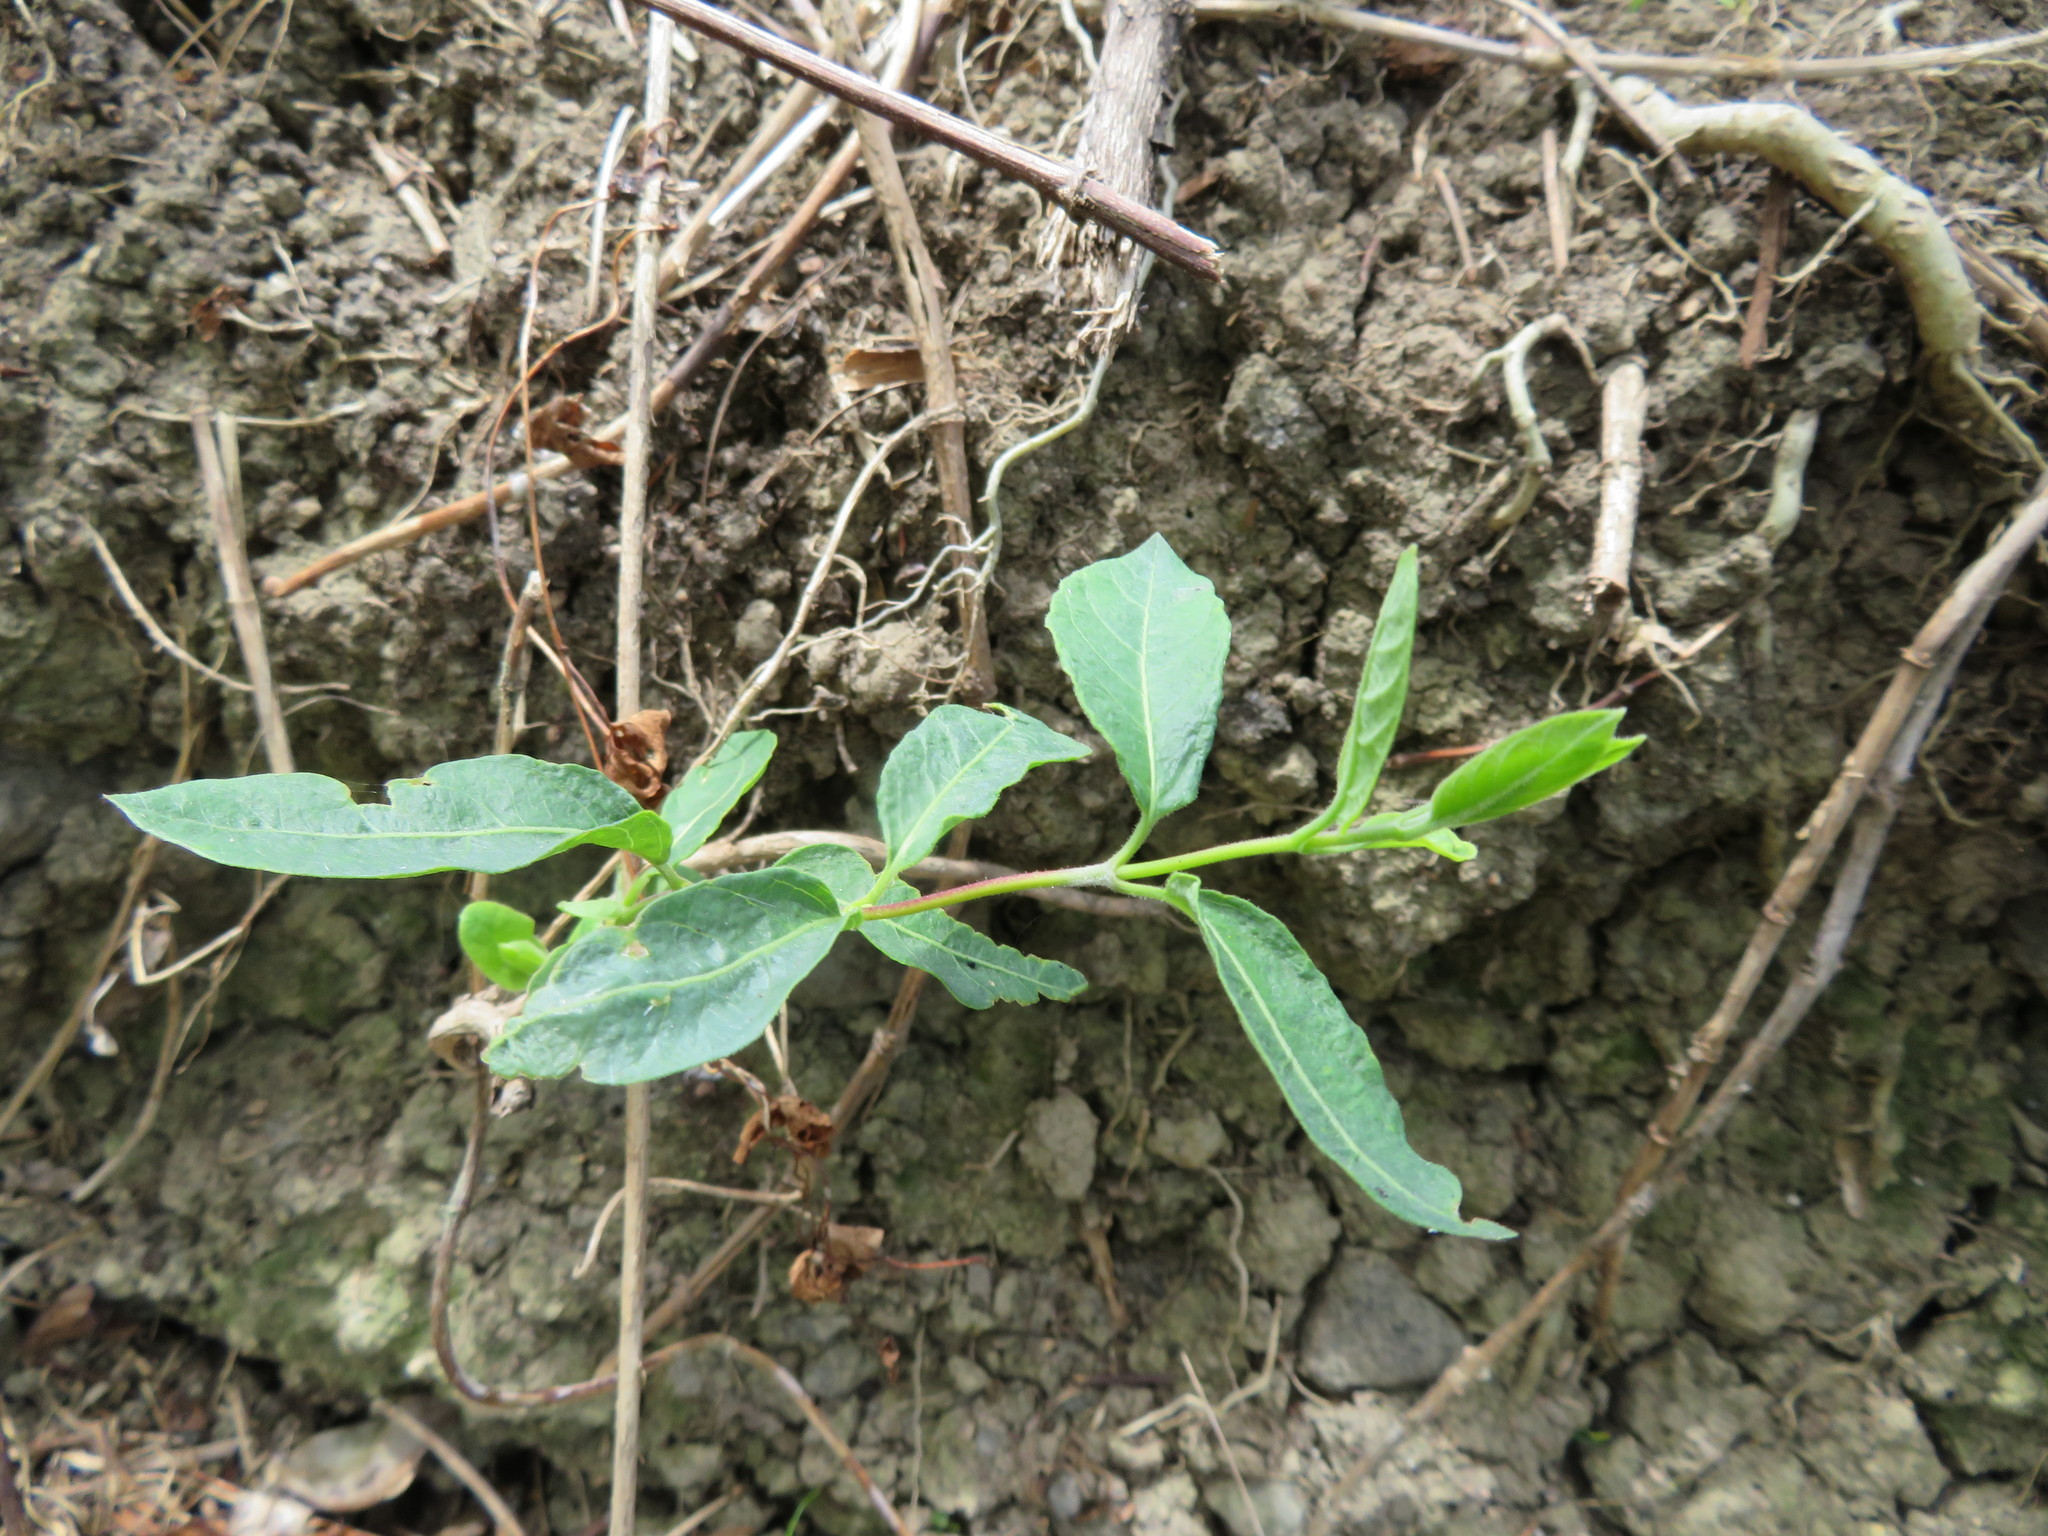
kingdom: Plantae
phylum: Tracheophyta
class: Magnoliopsida
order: Dipsacales
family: Caprifoliaceae
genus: Lonicera
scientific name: Lonicera japonica
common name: Japanese honeysuckle
